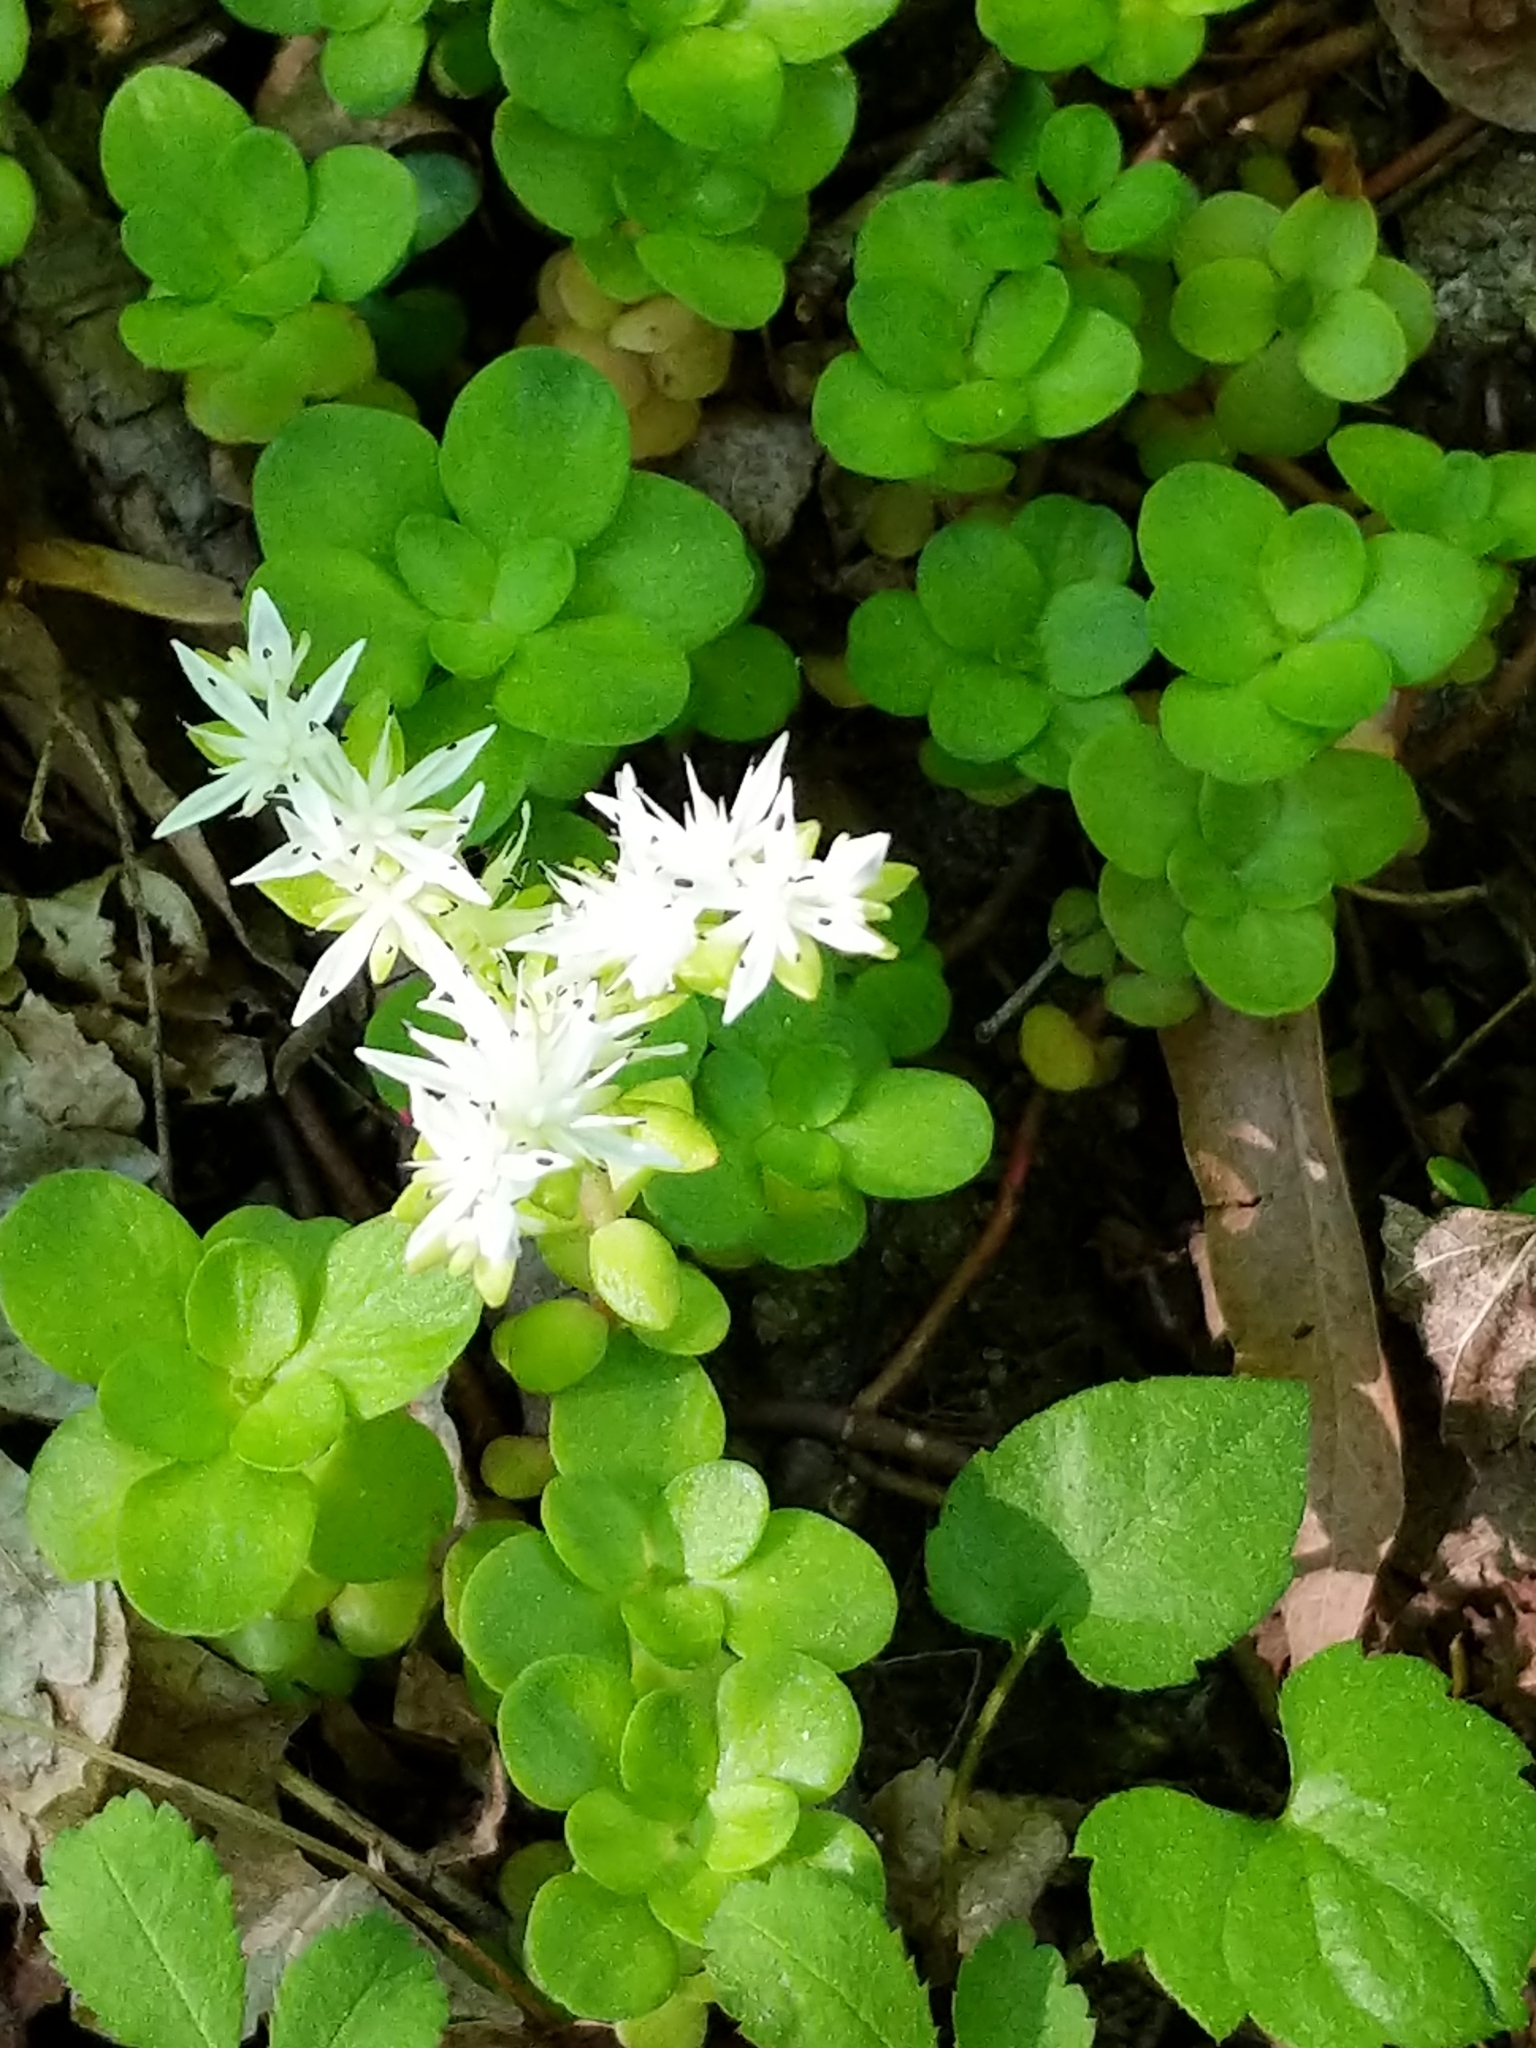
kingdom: Plantae
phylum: Tracheophyta
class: Magnoliopsida
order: Saxifragales
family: Crassulaceae
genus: Sedum
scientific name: Sedum ternatum
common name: Wild stonecrop
